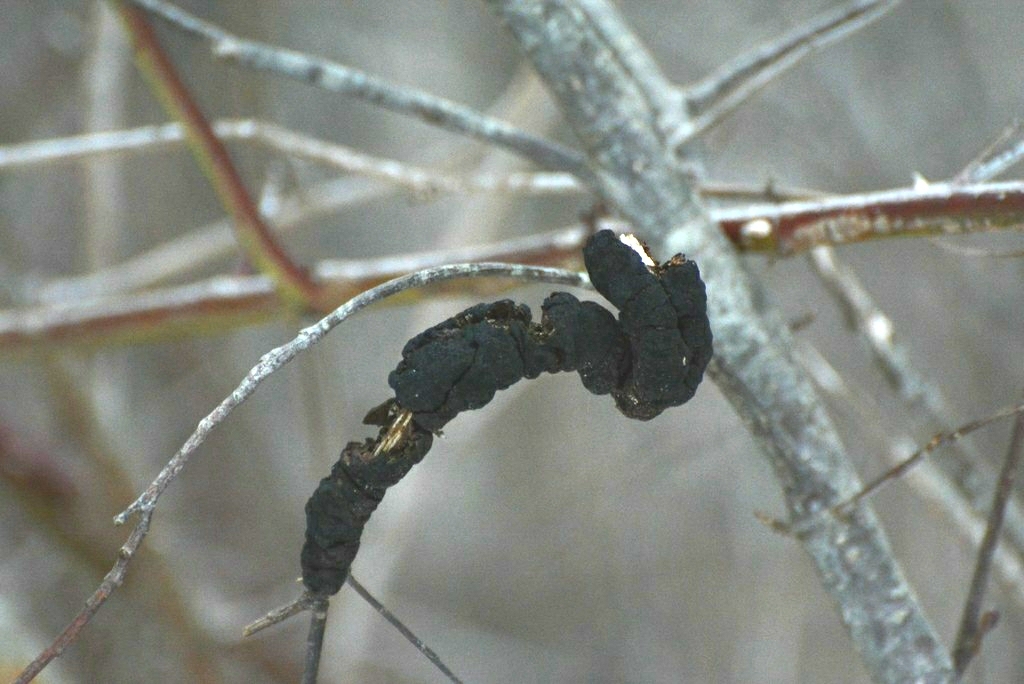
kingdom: Fungi
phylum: Ascomycota
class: Dothideomycetes
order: Venturiales
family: Venturiaceae
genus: Apiosporina
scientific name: Apiosporina morbosa
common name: Black knot
